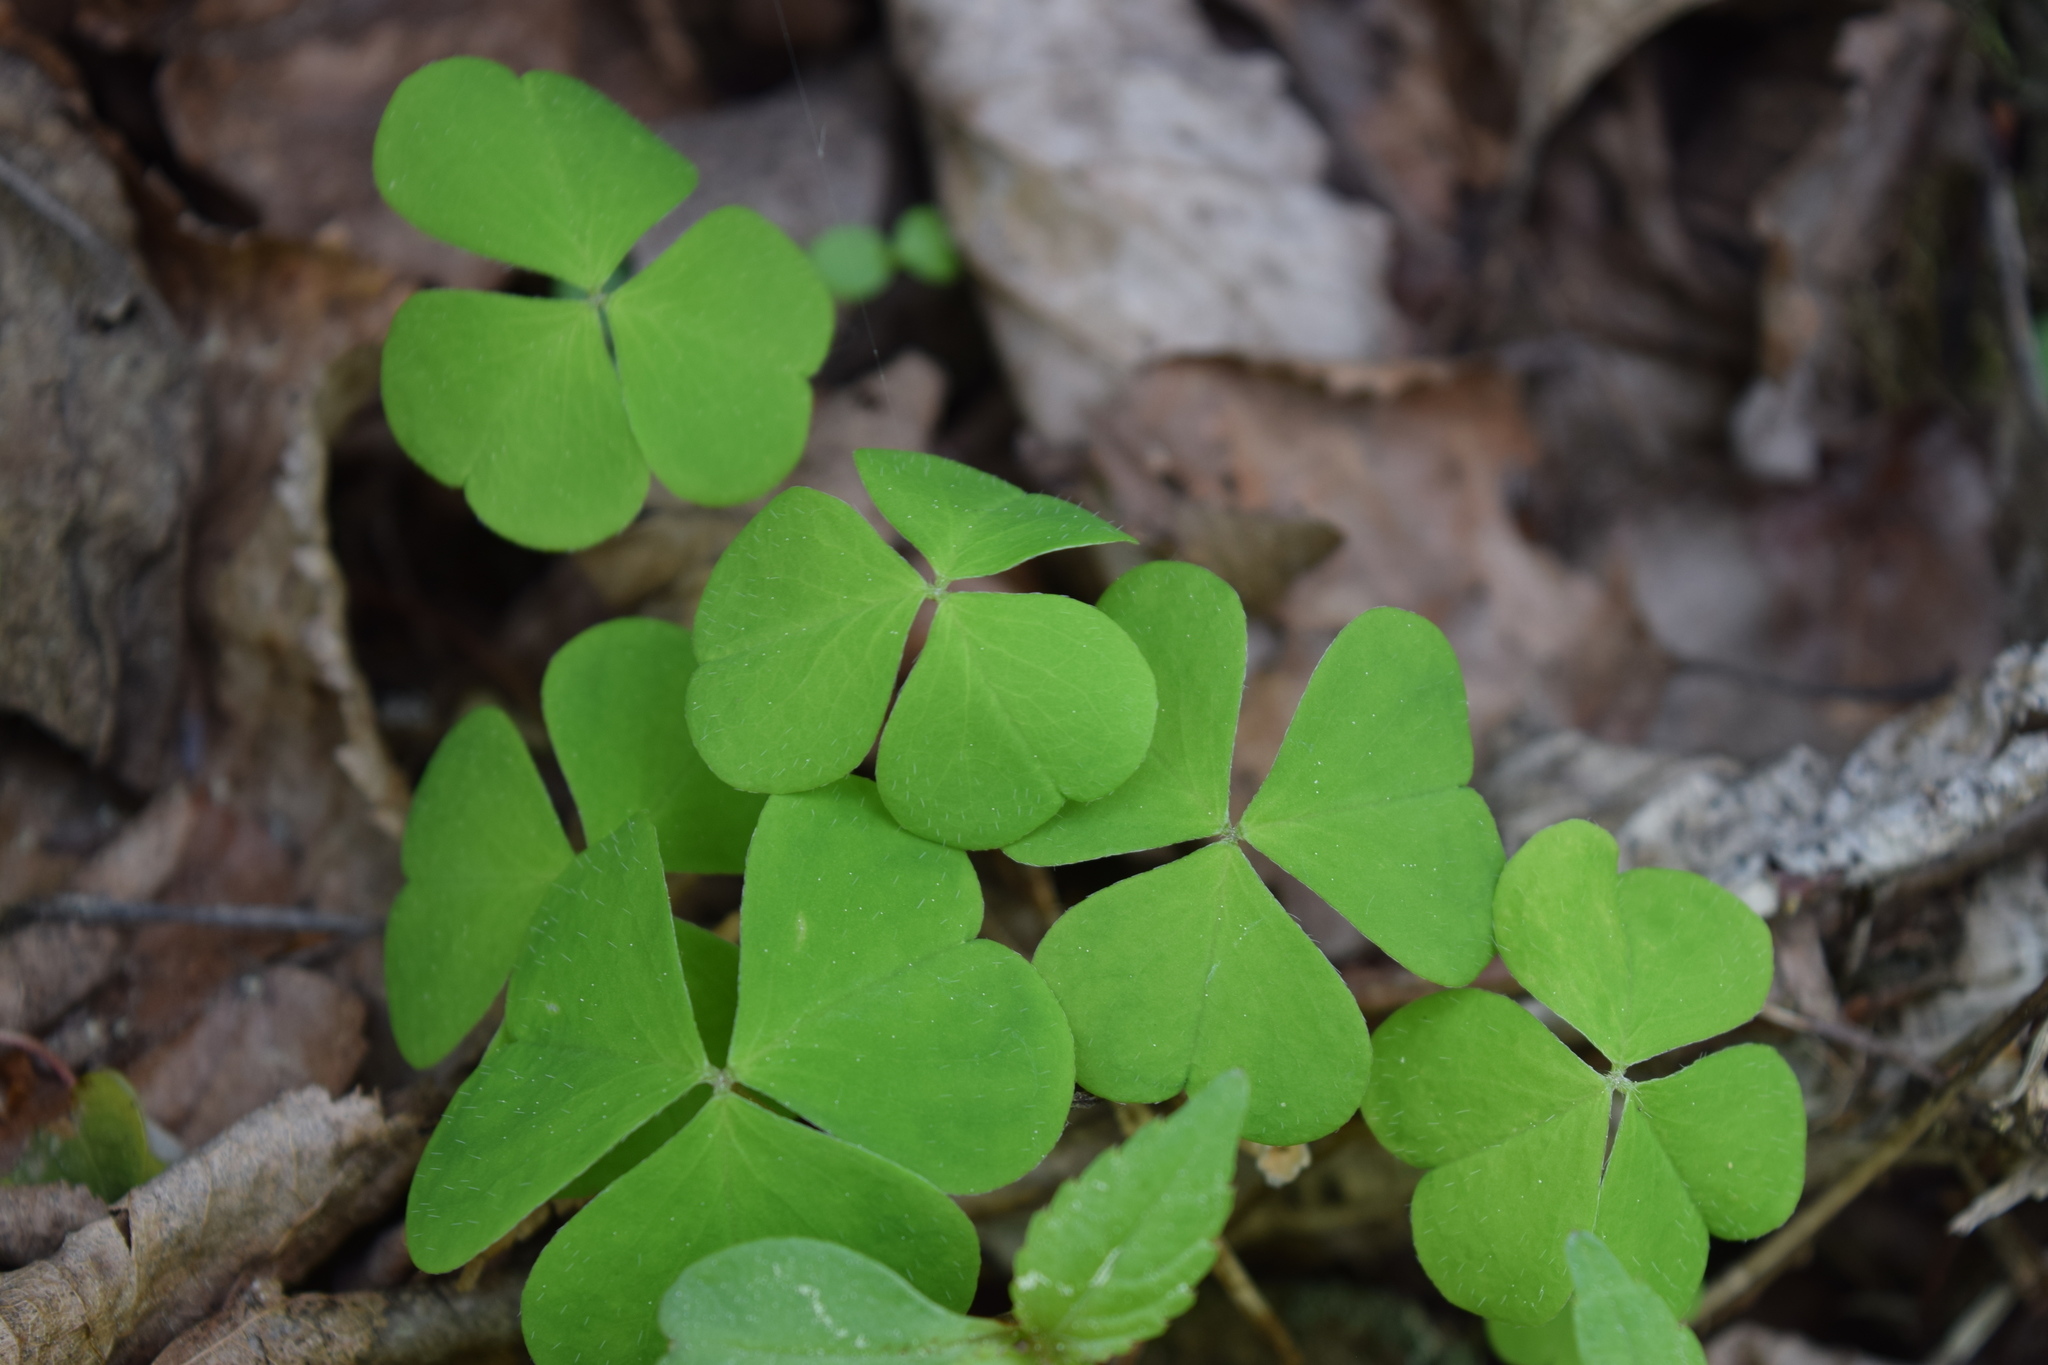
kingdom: Plantae
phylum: Tracheophyta
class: Magnoliopsida
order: Oxalidales
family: Oxalidaceae
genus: Oxalis
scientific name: Oxalis acetosella
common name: Wood-sorrel
